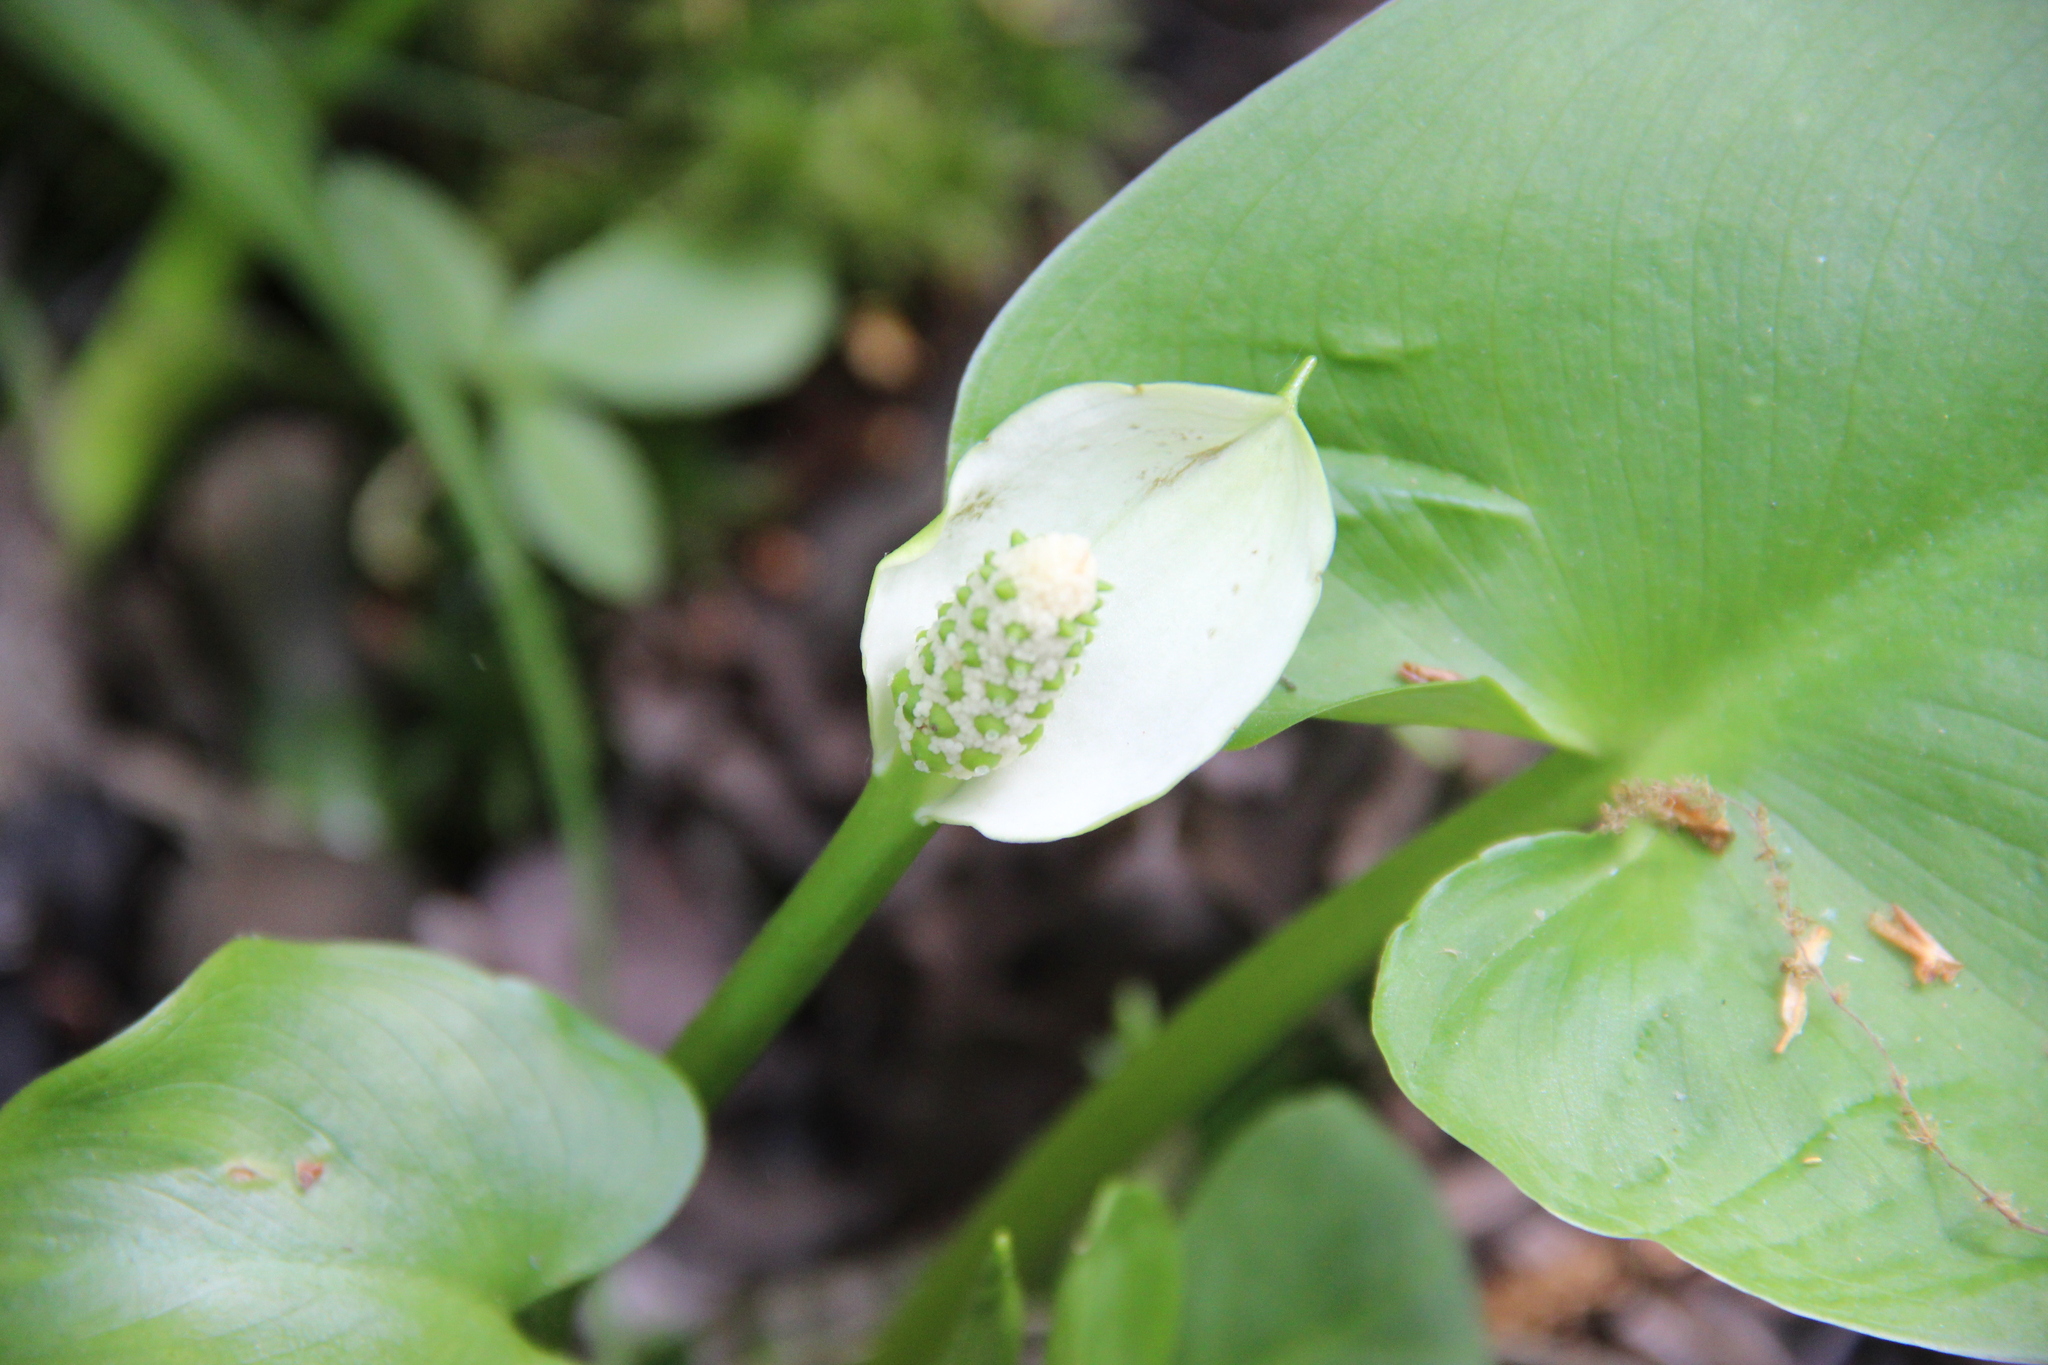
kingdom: Plantae
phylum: Tracheophyta
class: Liliopsida
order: Alismatales
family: Araceae
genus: Calla
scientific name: Calla palustris
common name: Bog arum
